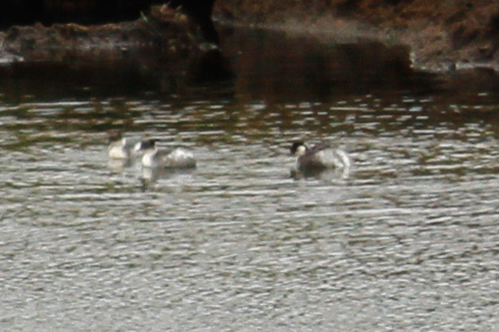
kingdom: Animalia
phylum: Chordata
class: Aves
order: Podicipediformes
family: Podicipedidae
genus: Podiceps
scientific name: Podiceps occipitalis
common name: Silvery grebe
